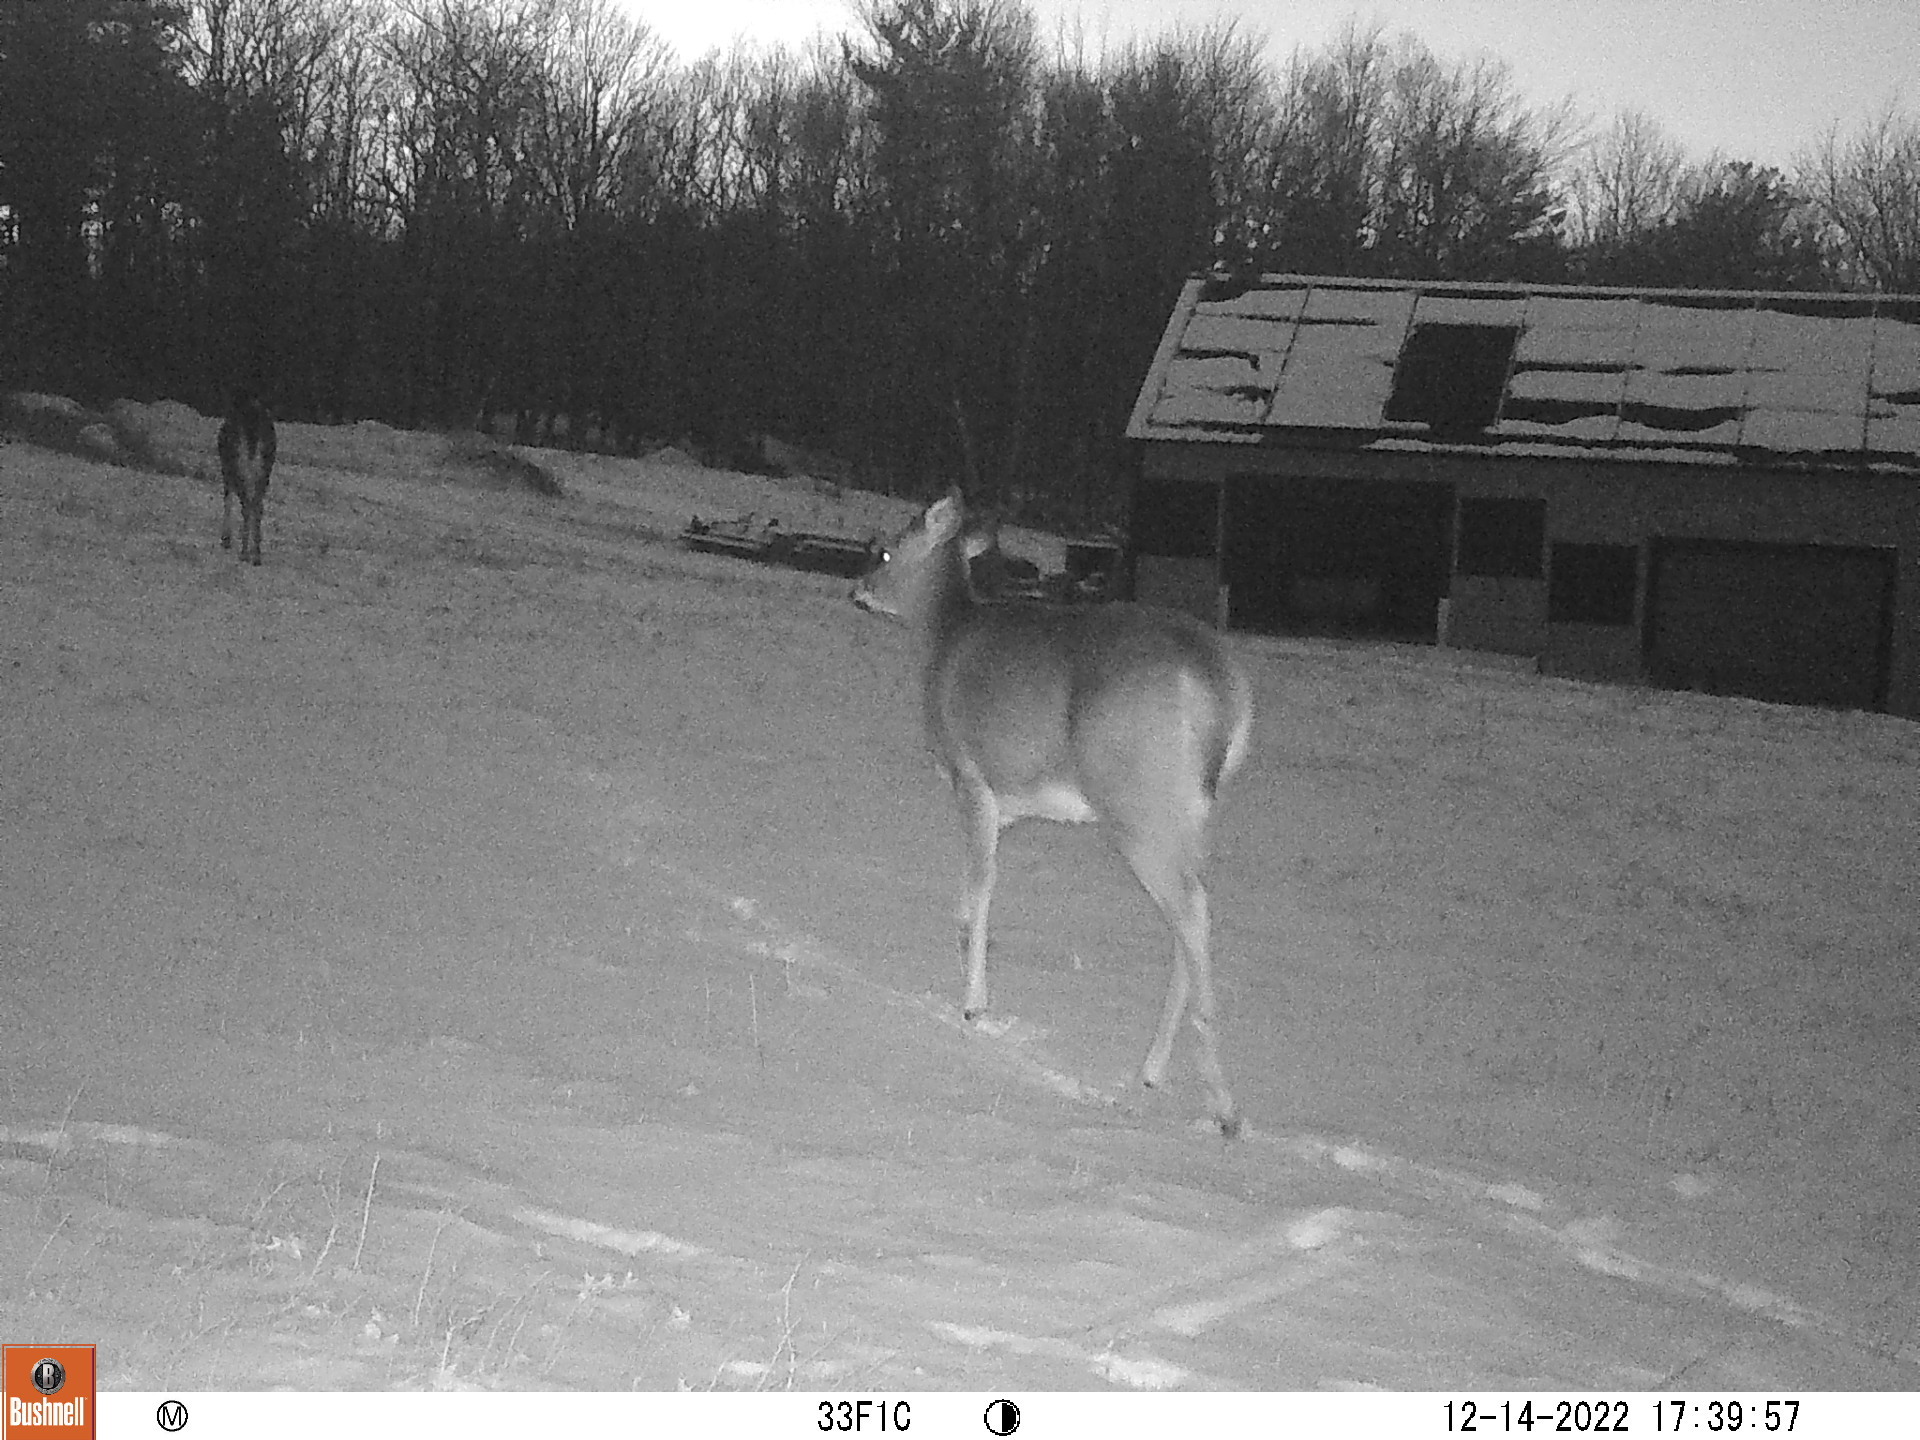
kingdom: Animalia
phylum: Chordata
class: Mammalia
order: Artiodactyla
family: Cervidae
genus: Odocoileus
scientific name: Odocoileus virginianus
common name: White-tailed deer
